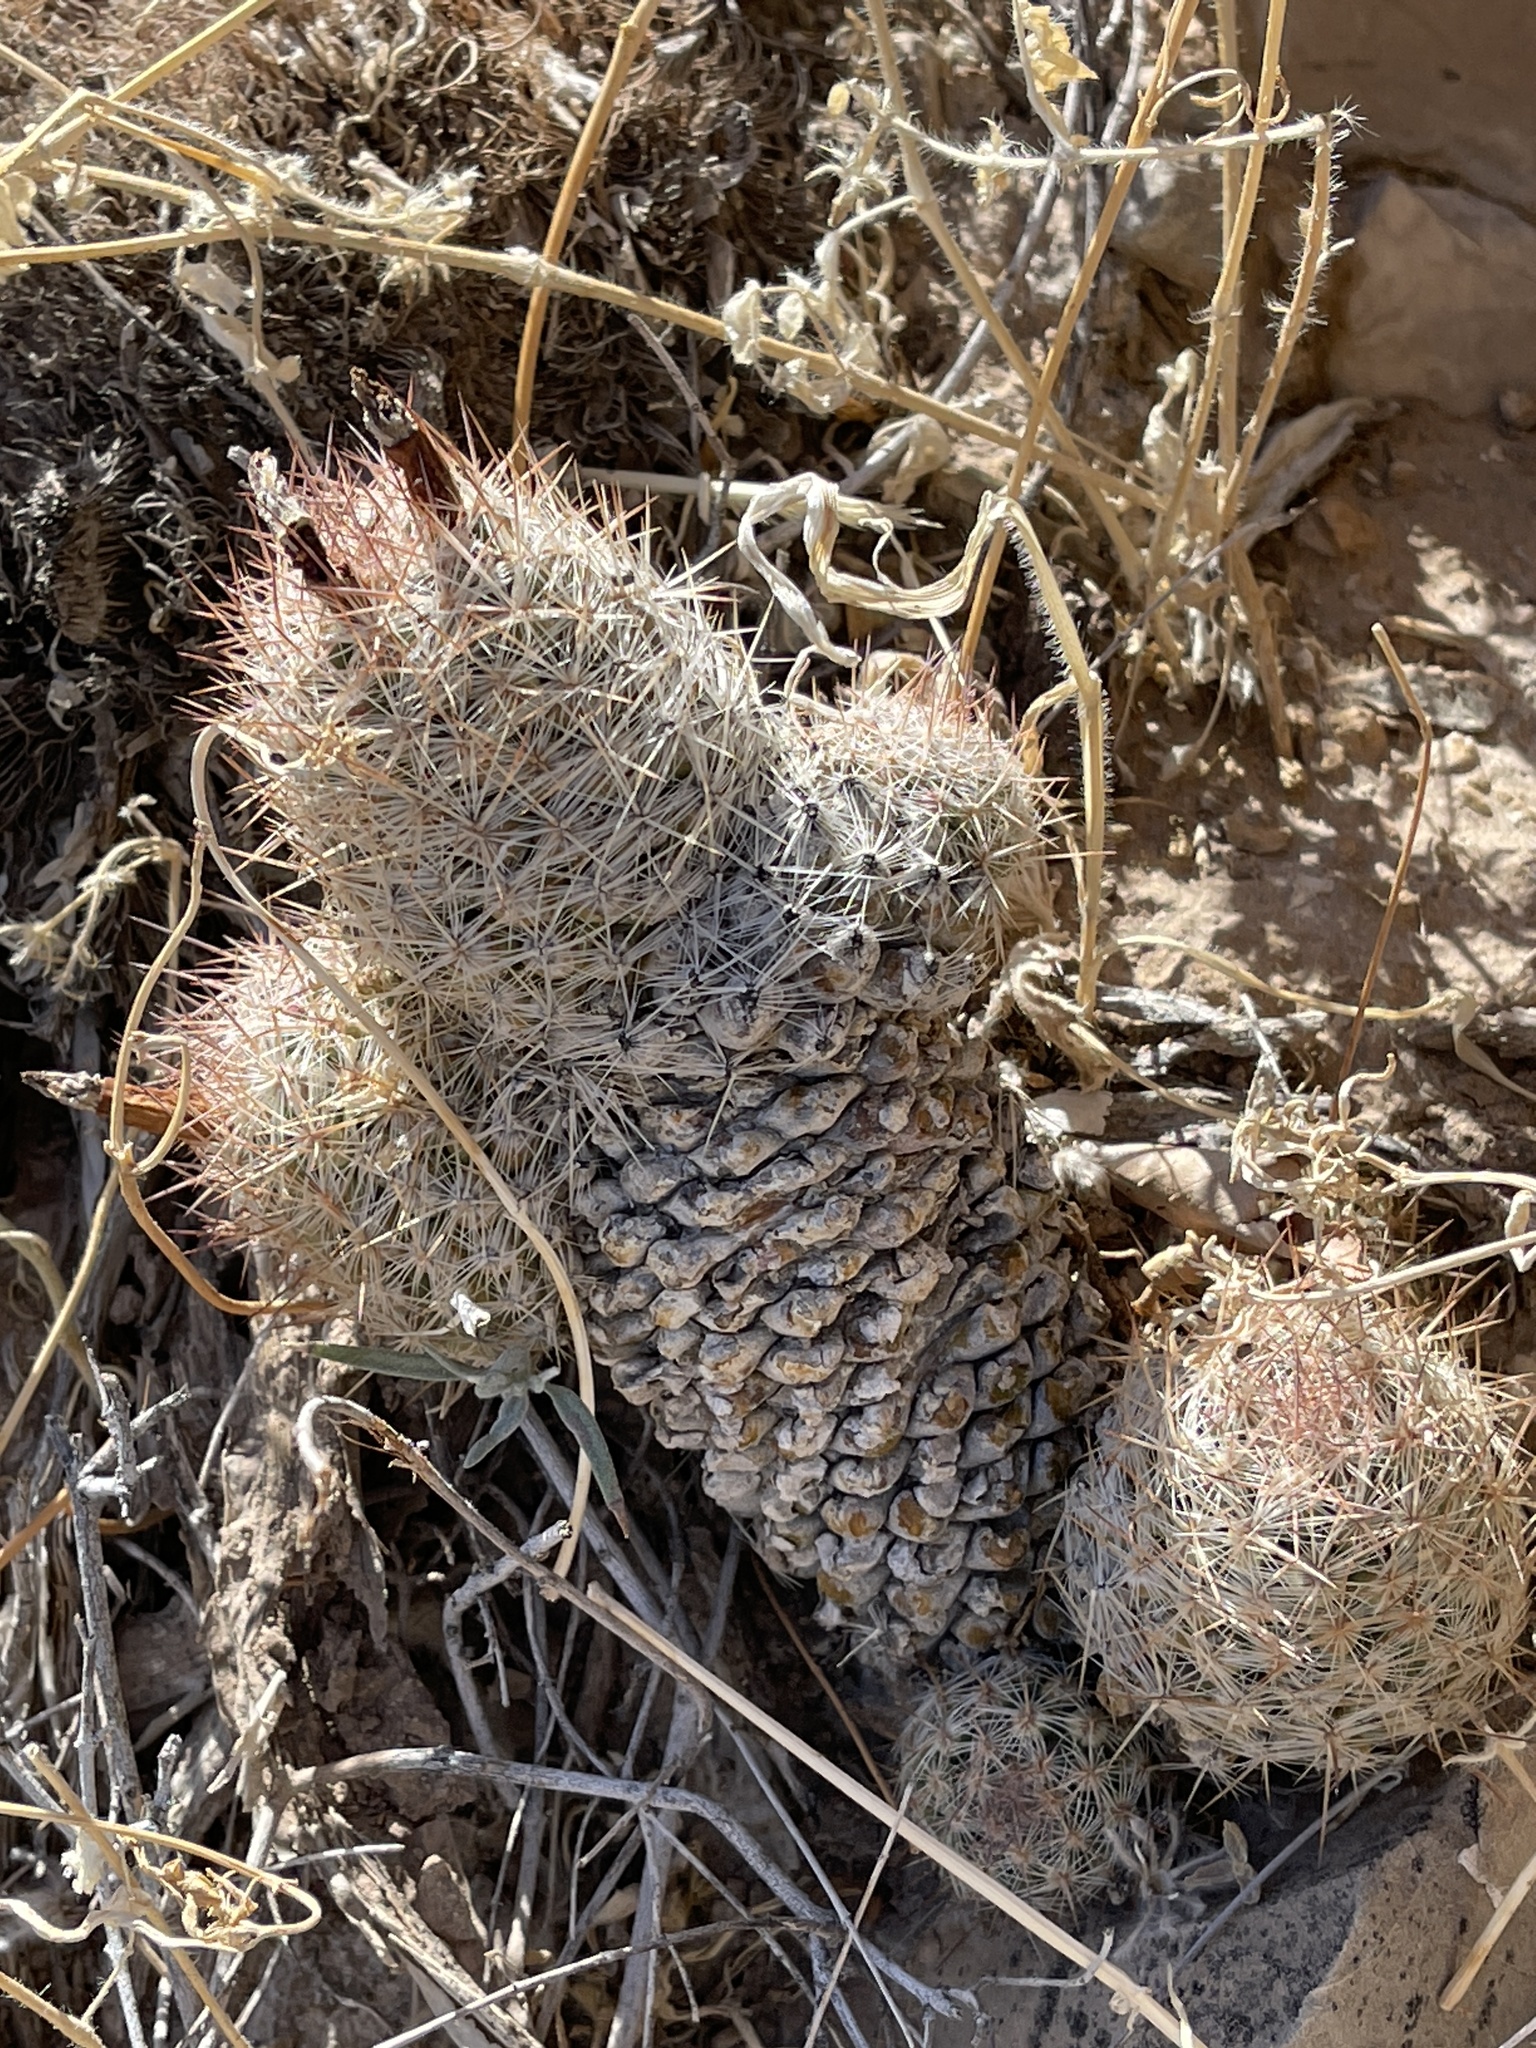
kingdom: Plantae
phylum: Tracheophyta
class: Magnoliopsida
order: Caryophyllales
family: Cactaceae
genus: Pelecyphora
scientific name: Pelecyphora tuberculosa
